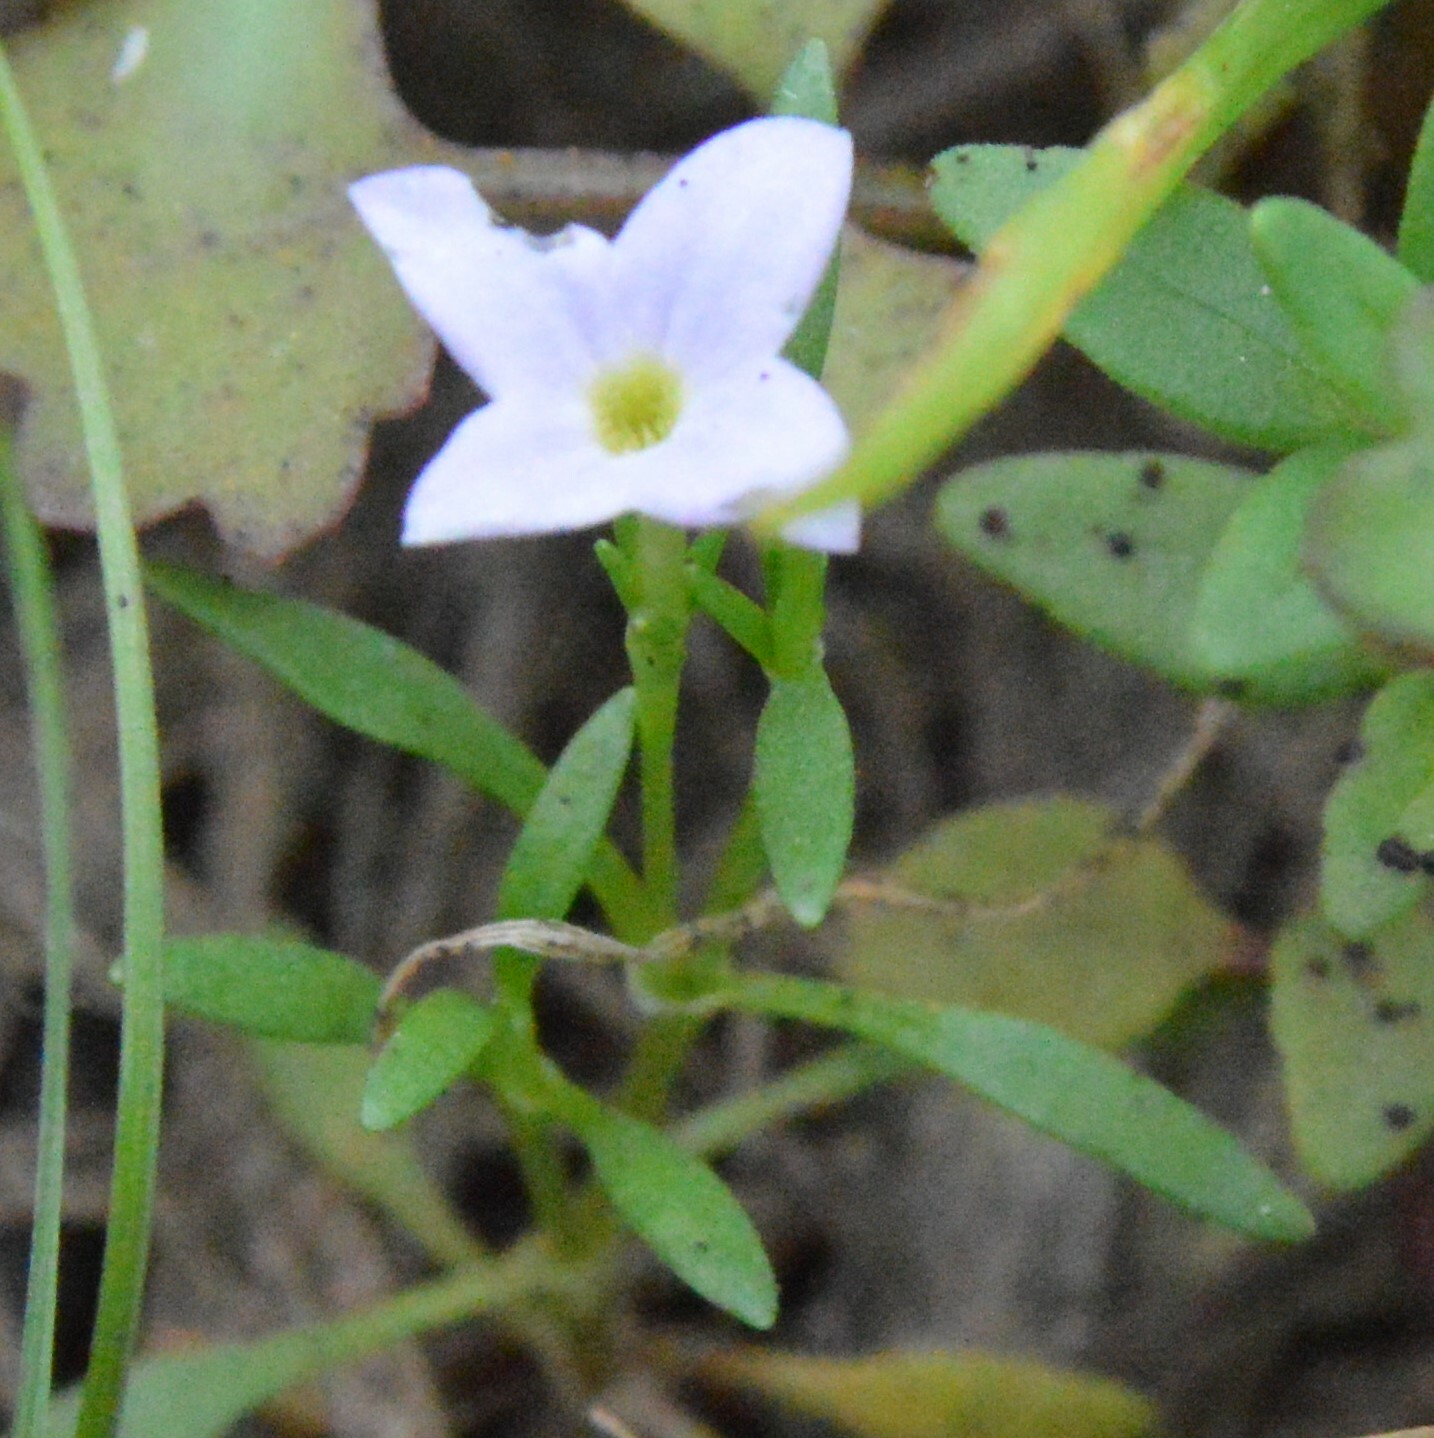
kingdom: Plantae
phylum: Tracheophyta
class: Magnoliopsida
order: Gentianales
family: Rubiaceae
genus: Houstonia
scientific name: Houstonia rosea
